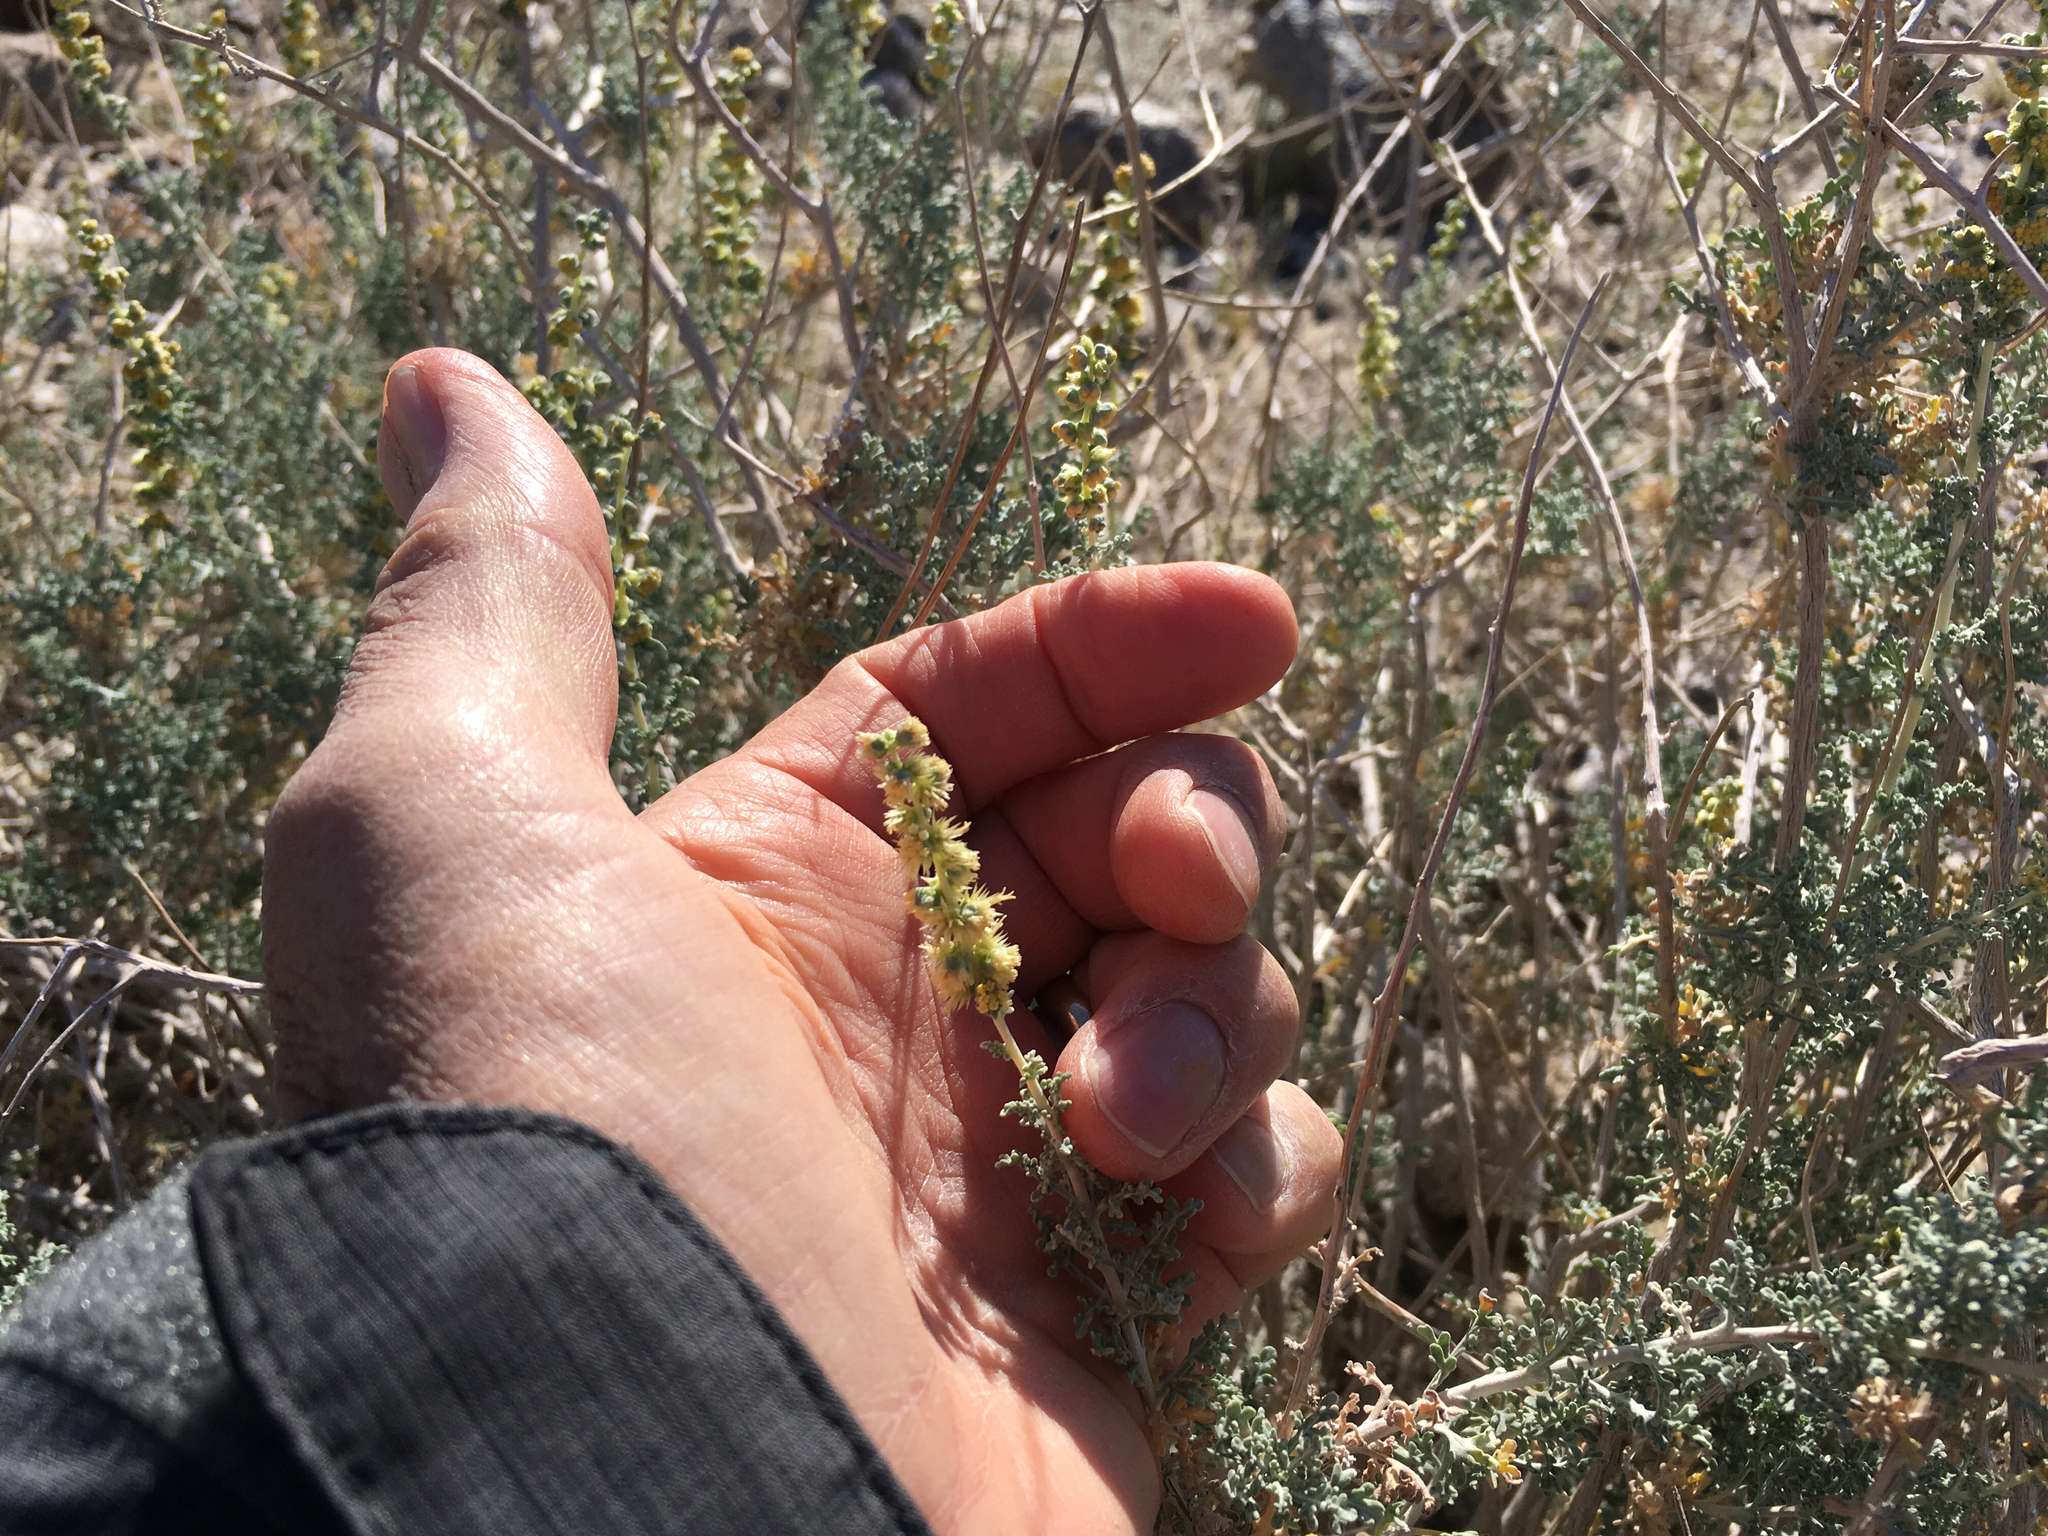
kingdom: Plantae
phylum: Tracheophyta
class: Magnoliopsida
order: Asterales
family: Asteraceae
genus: Ambrosia
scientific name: Ambrosia dumosa
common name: Bur-sage
